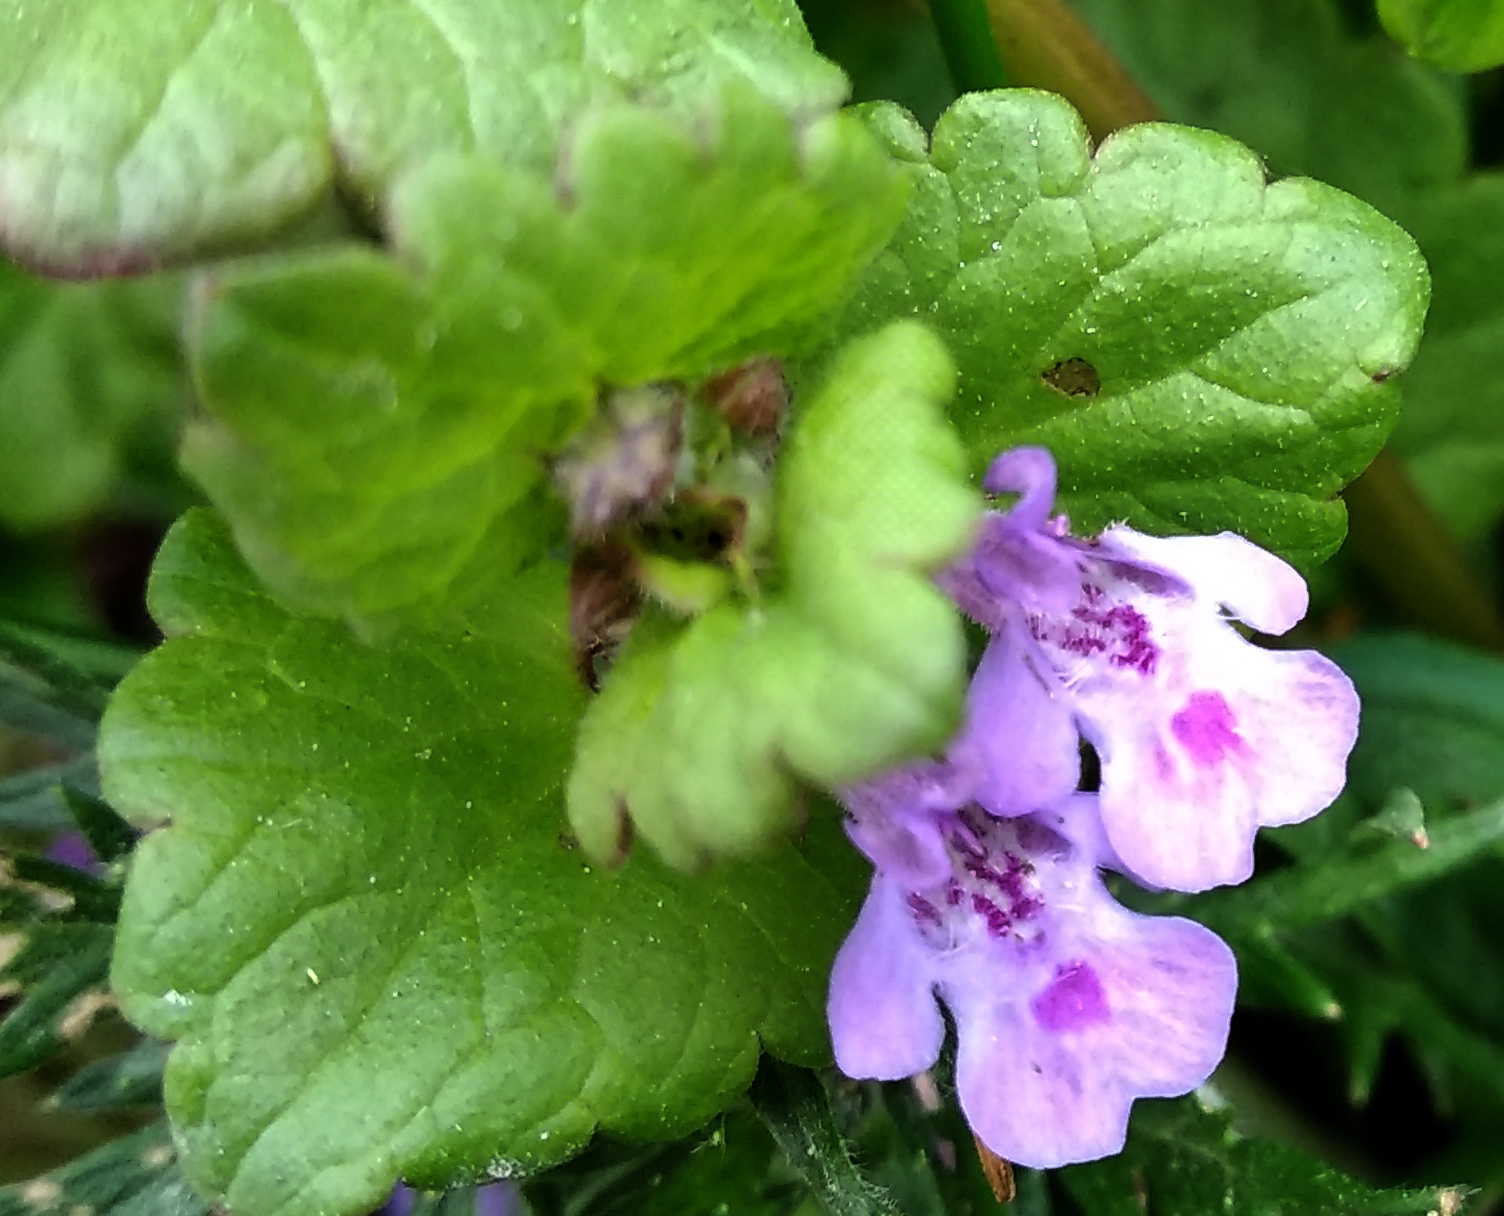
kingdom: Plantae
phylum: Tracheophyta
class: Magnoliopsida
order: Lamiales
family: Lamiaceae
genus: Glechoma
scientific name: Glechoma hederacea
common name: Ground ivy
